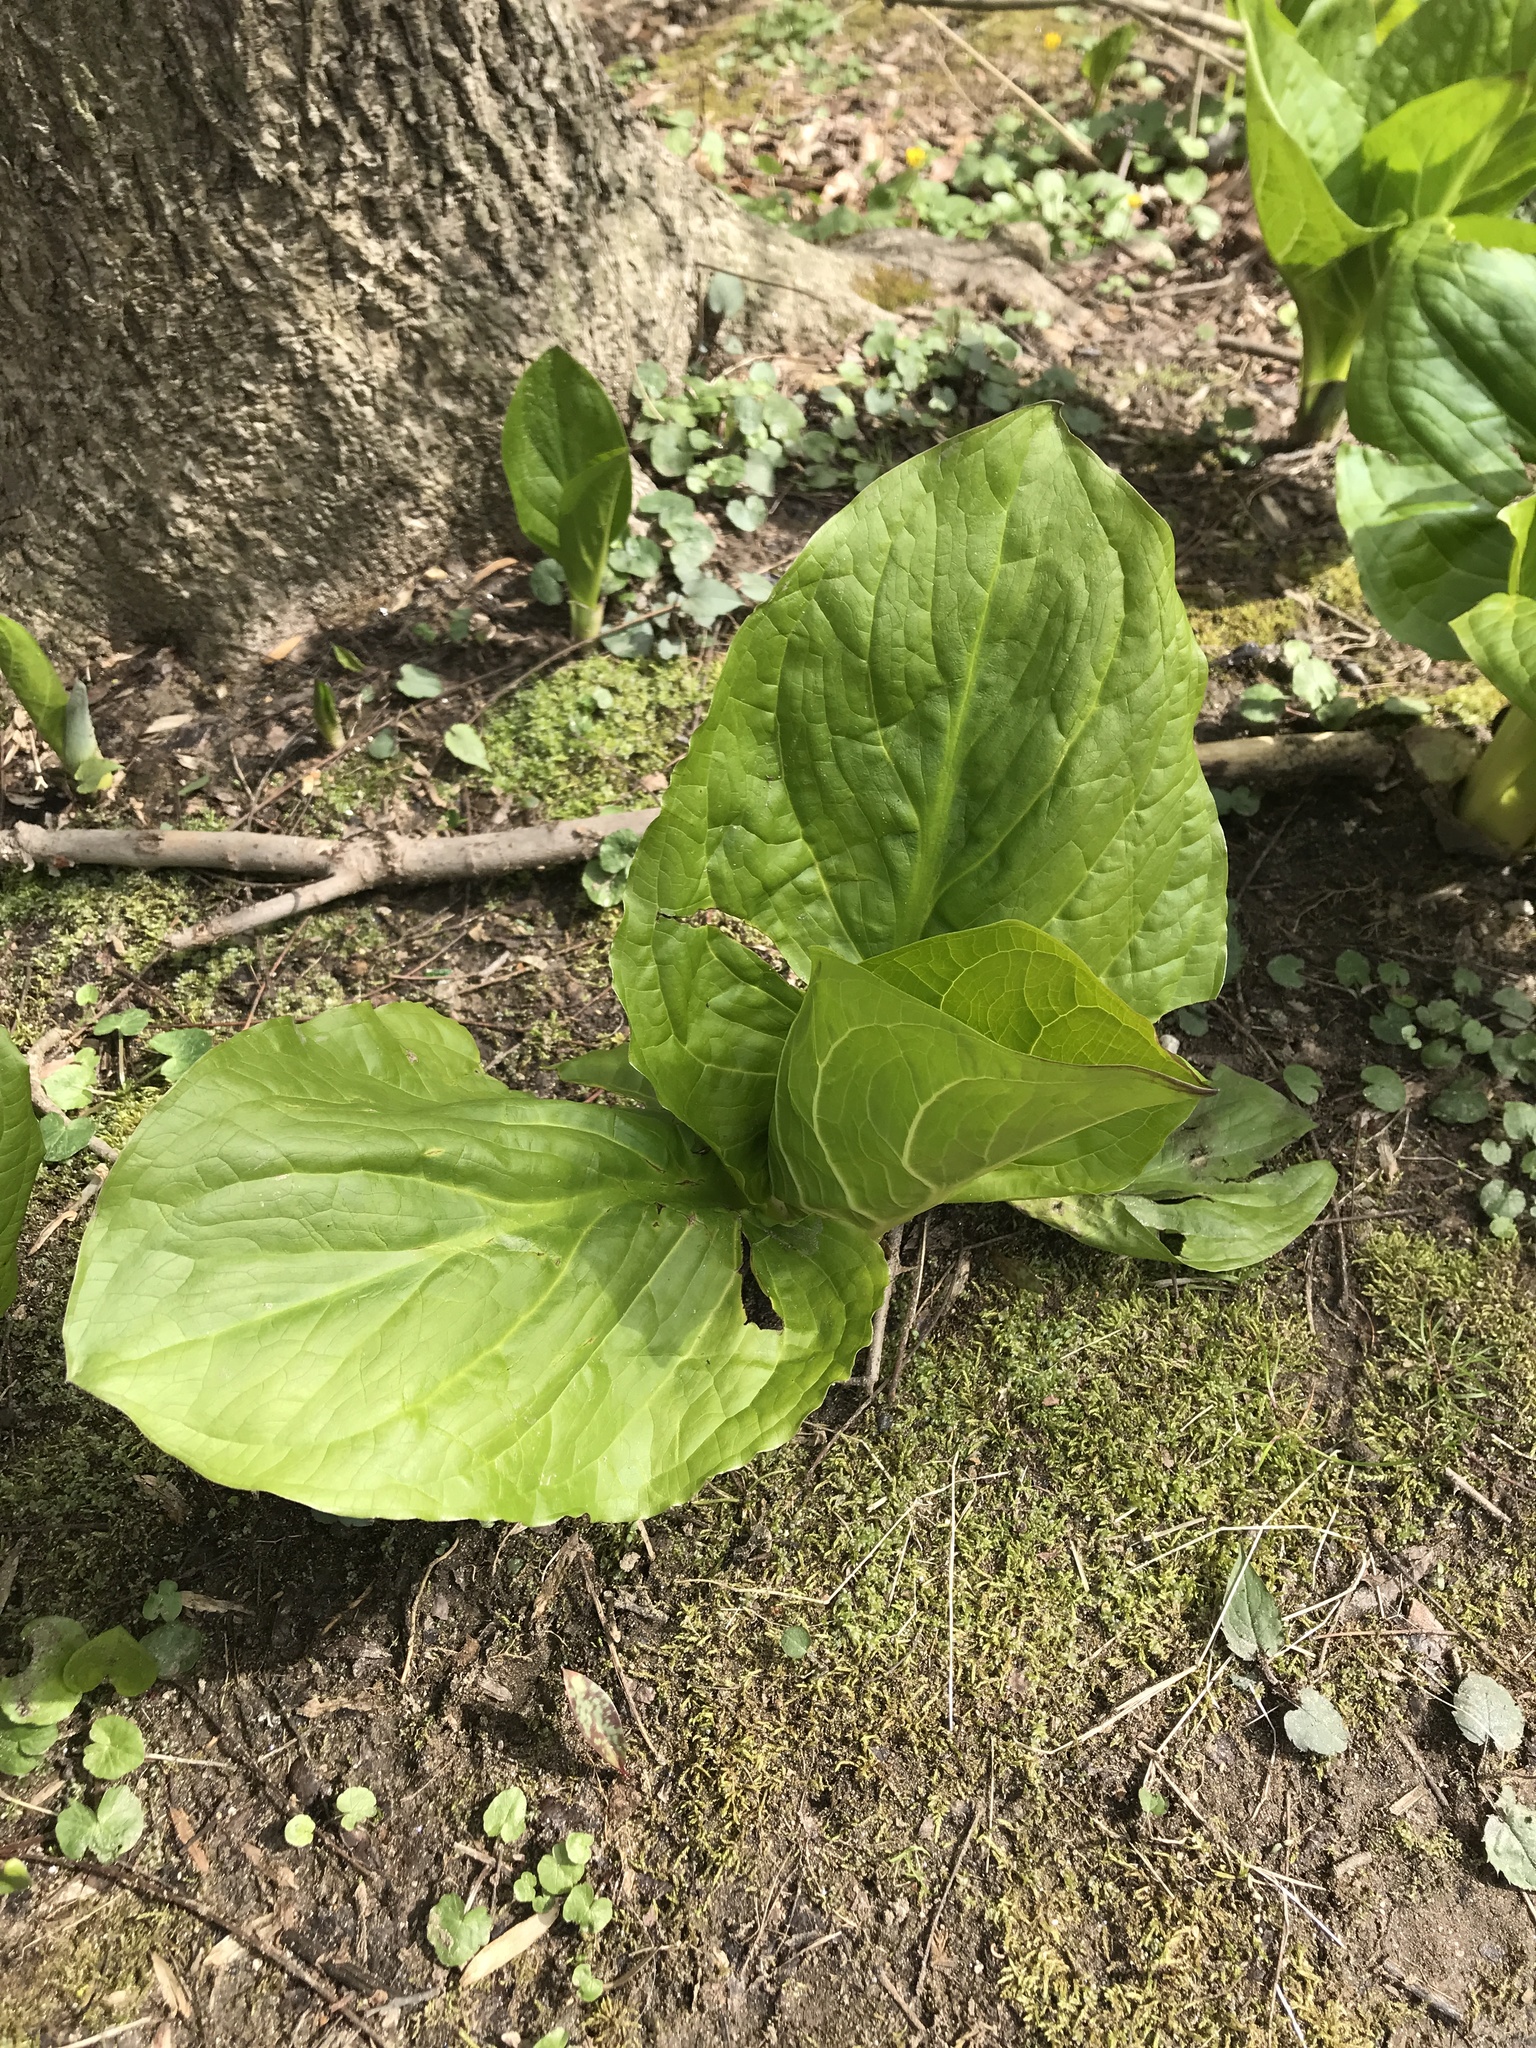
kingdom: Plantae
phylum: Tracheophyta
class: Liliopsida
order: Alismatales
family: Araceae
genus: Symplocarpus
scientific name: Symplocarpus foetidus
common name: Eastern skunk cabbage
